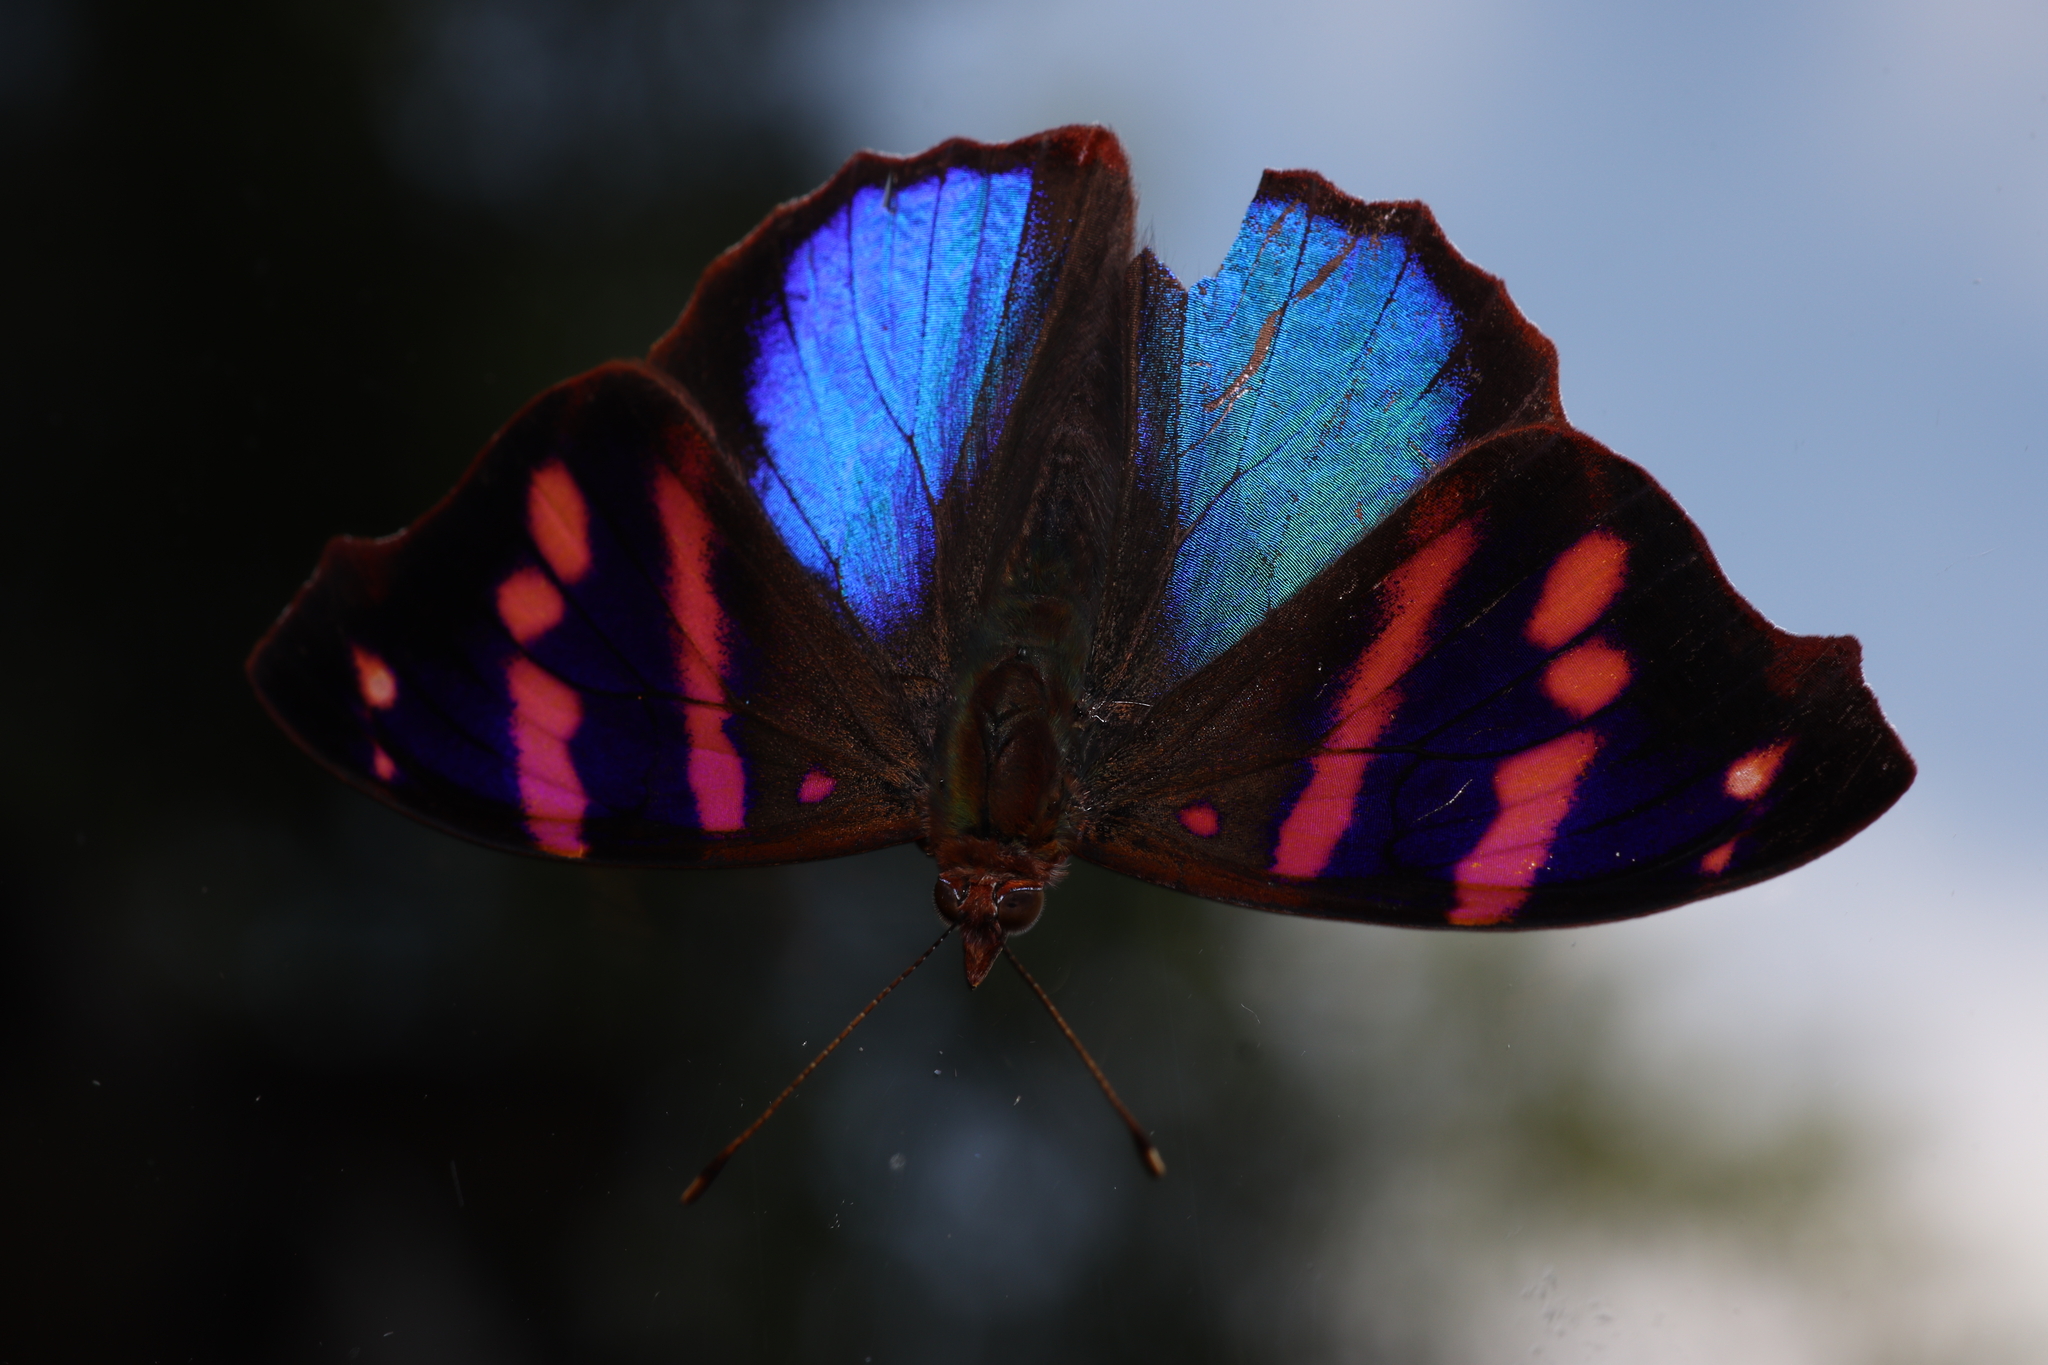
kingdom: Animalia
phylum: Arthropoda
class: Insecta
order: Lepidoptera
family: Nymphalidae
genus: Epiphile
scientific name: Epiphile orea
